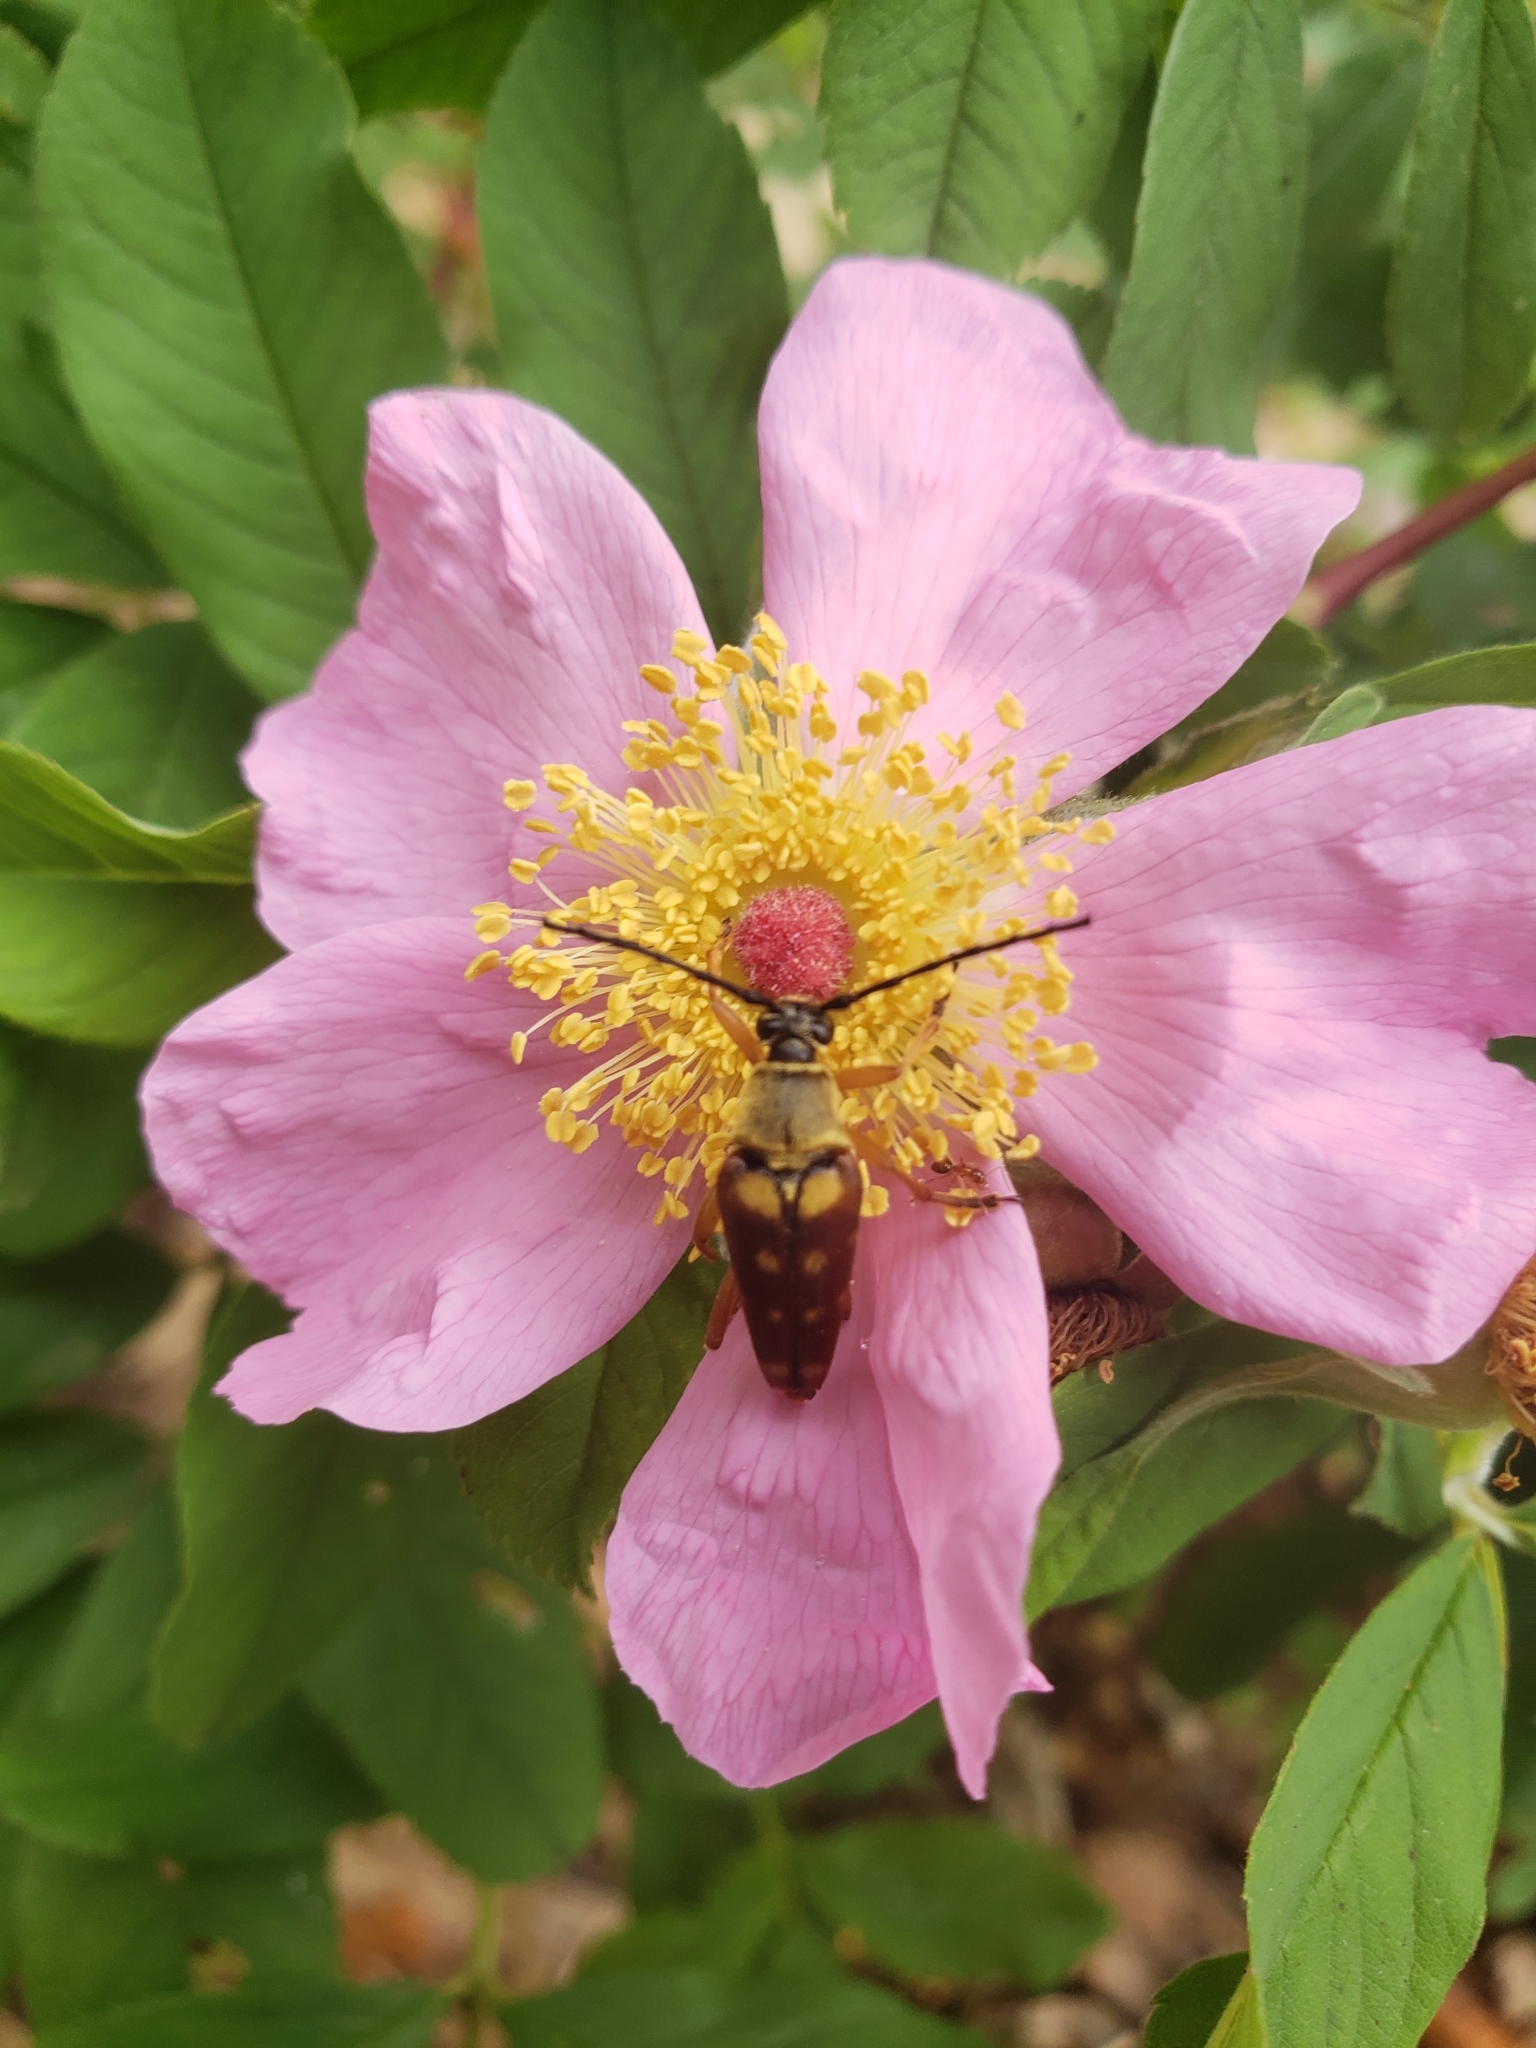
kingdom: Animalia
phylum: Arthropoda
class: Insecta
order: Coleoptera
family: Cerambycidae
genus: Typocerus
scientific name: Typocerus velutinus
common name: Banded longhorn beetle
